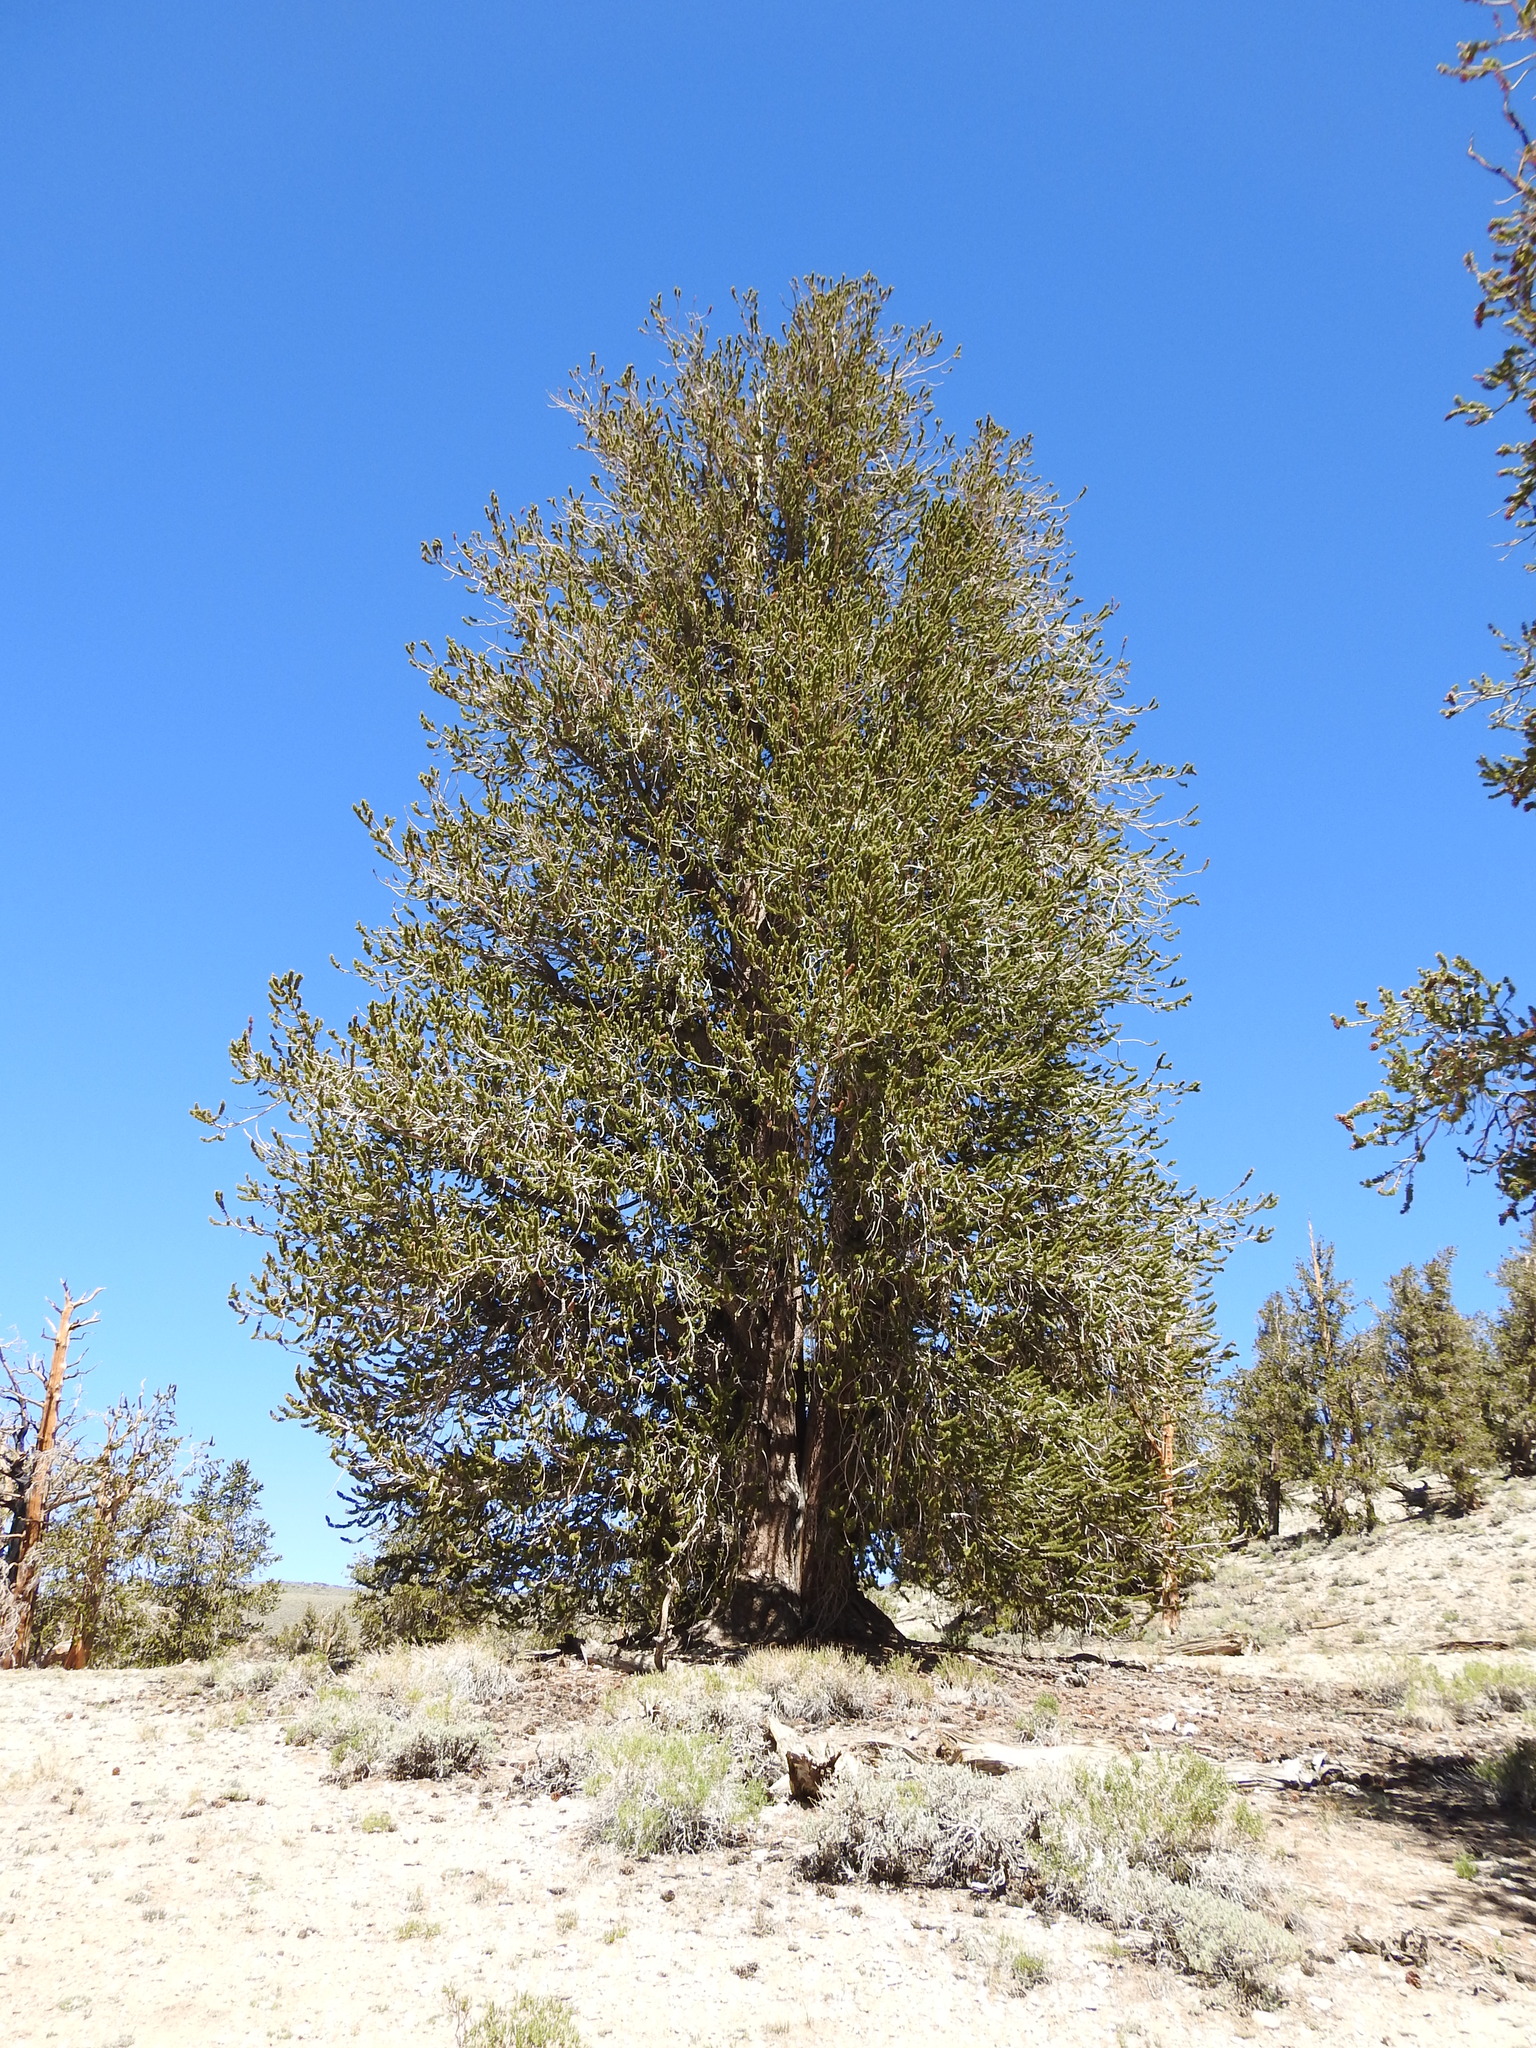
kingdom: Plantae
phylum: Tracheophyta
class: Pinopsida
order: Pinales
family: Pinaceae
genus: Pinus
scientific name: Pinus longaeva
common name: Intermountain bristlecone pine
